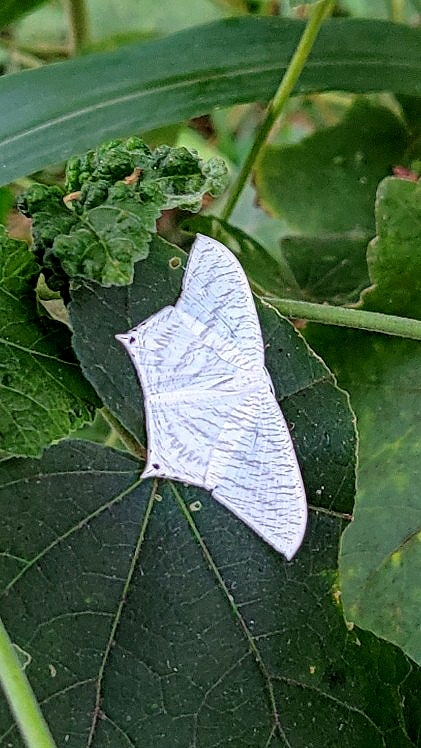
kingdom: Animalia
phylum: Arthropoda
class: Insecta
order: Lepidoptera
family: Uraniidae
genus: Micronia
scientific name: Micronia aculeata
